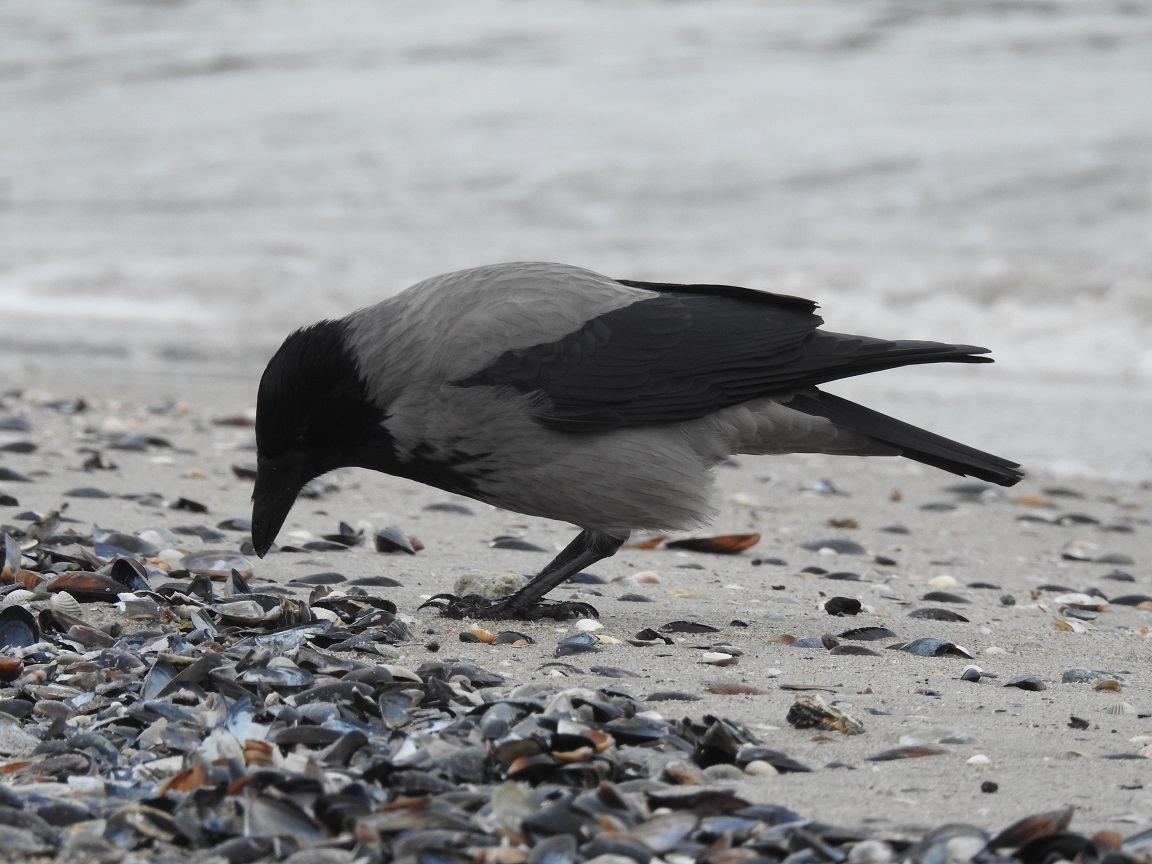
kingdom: Animalia
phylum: Chordata
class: Aves
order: Passeriformes
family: Corvidae
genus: Corvus
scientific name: Corvus cornix
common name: Hooded crow
